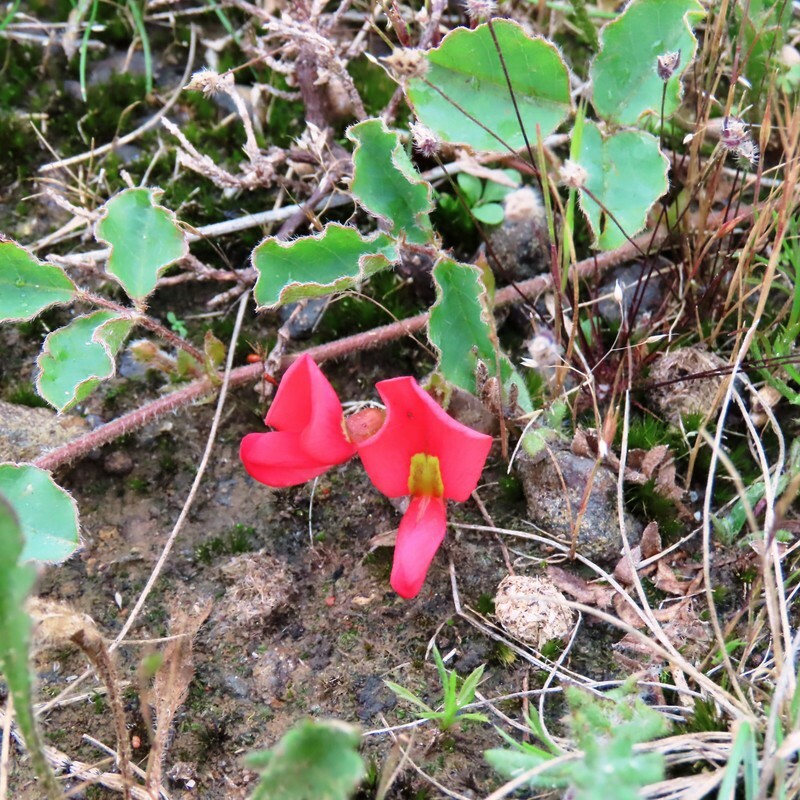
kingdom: Plantae
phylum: Tracheophyta
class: Magnoliopsida
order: Fabales
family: Fabaceae
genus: Kennedia
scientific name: Kennedia prostrata
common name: Running-postman
